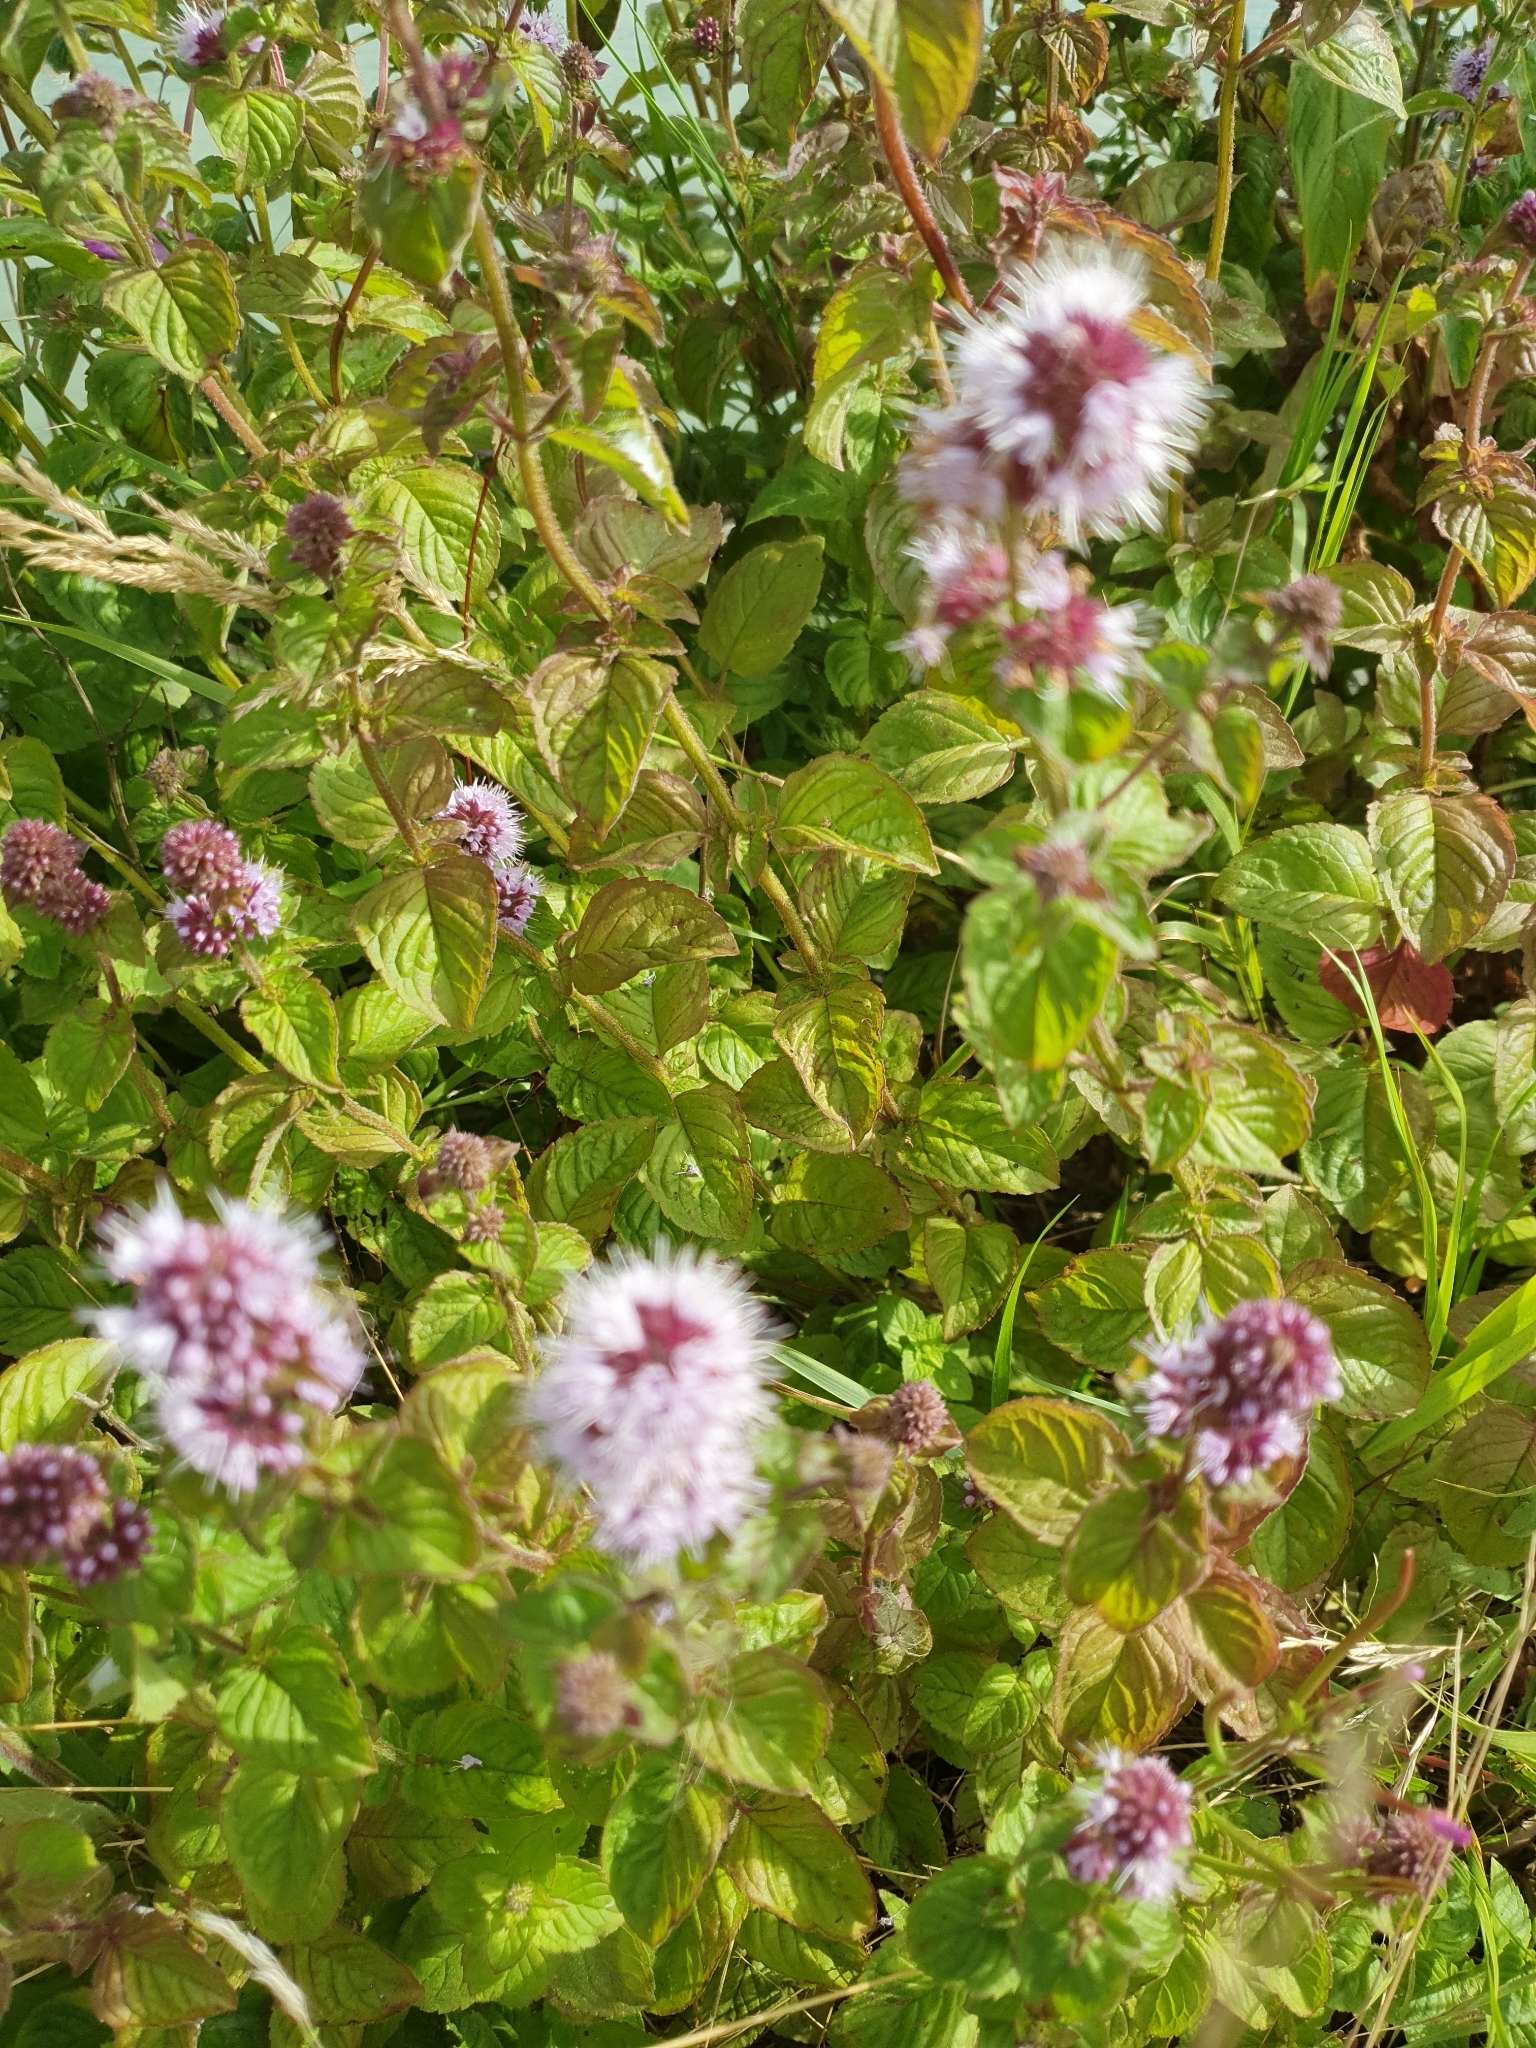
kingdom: Plantae
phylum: Tracheophyta
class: Magnoliopsida
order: Lamiales
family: Lamiaceae
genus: Mentha
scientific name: Mentha aquatica
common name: Water mint
